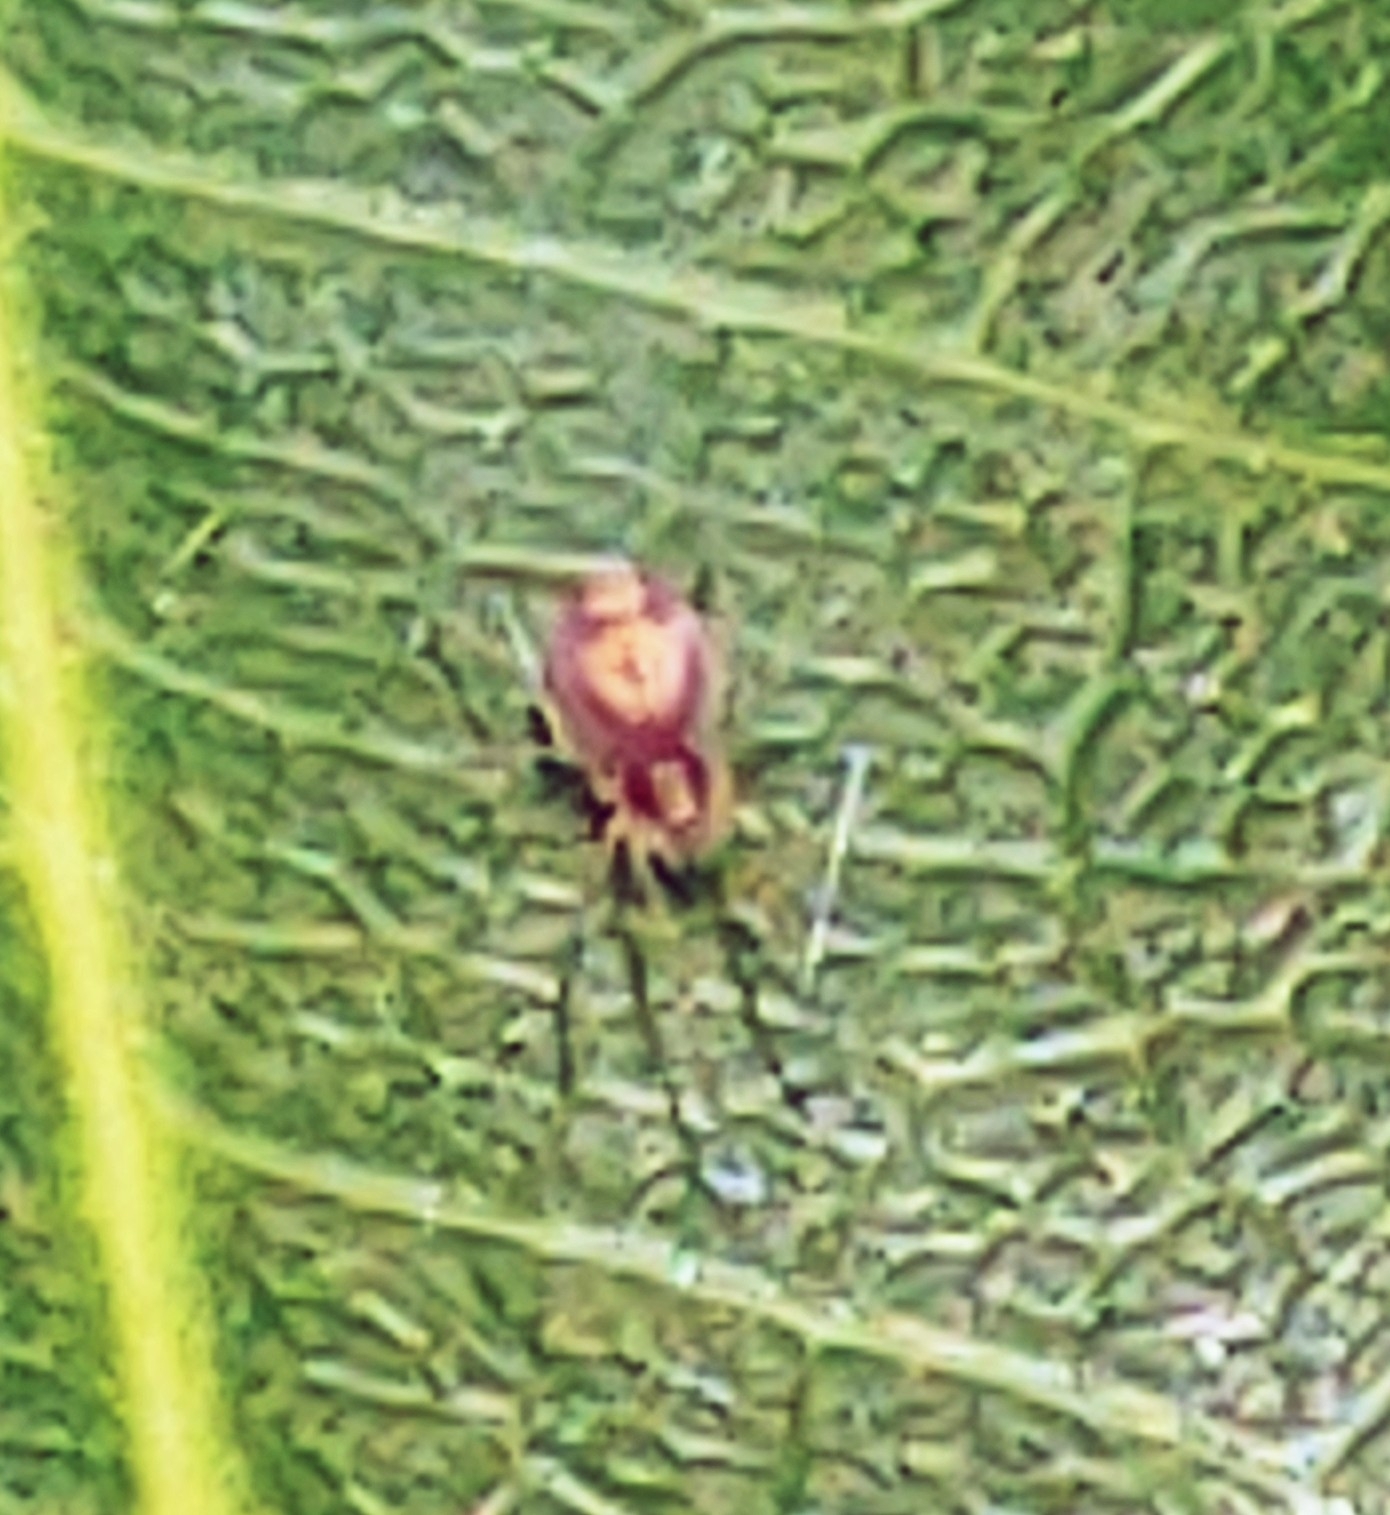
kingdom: Animalia
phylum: Arthropoda
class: Arachnida
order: Araneae
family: Dictynidae
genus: Emblyna
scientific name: Emblyna florens
